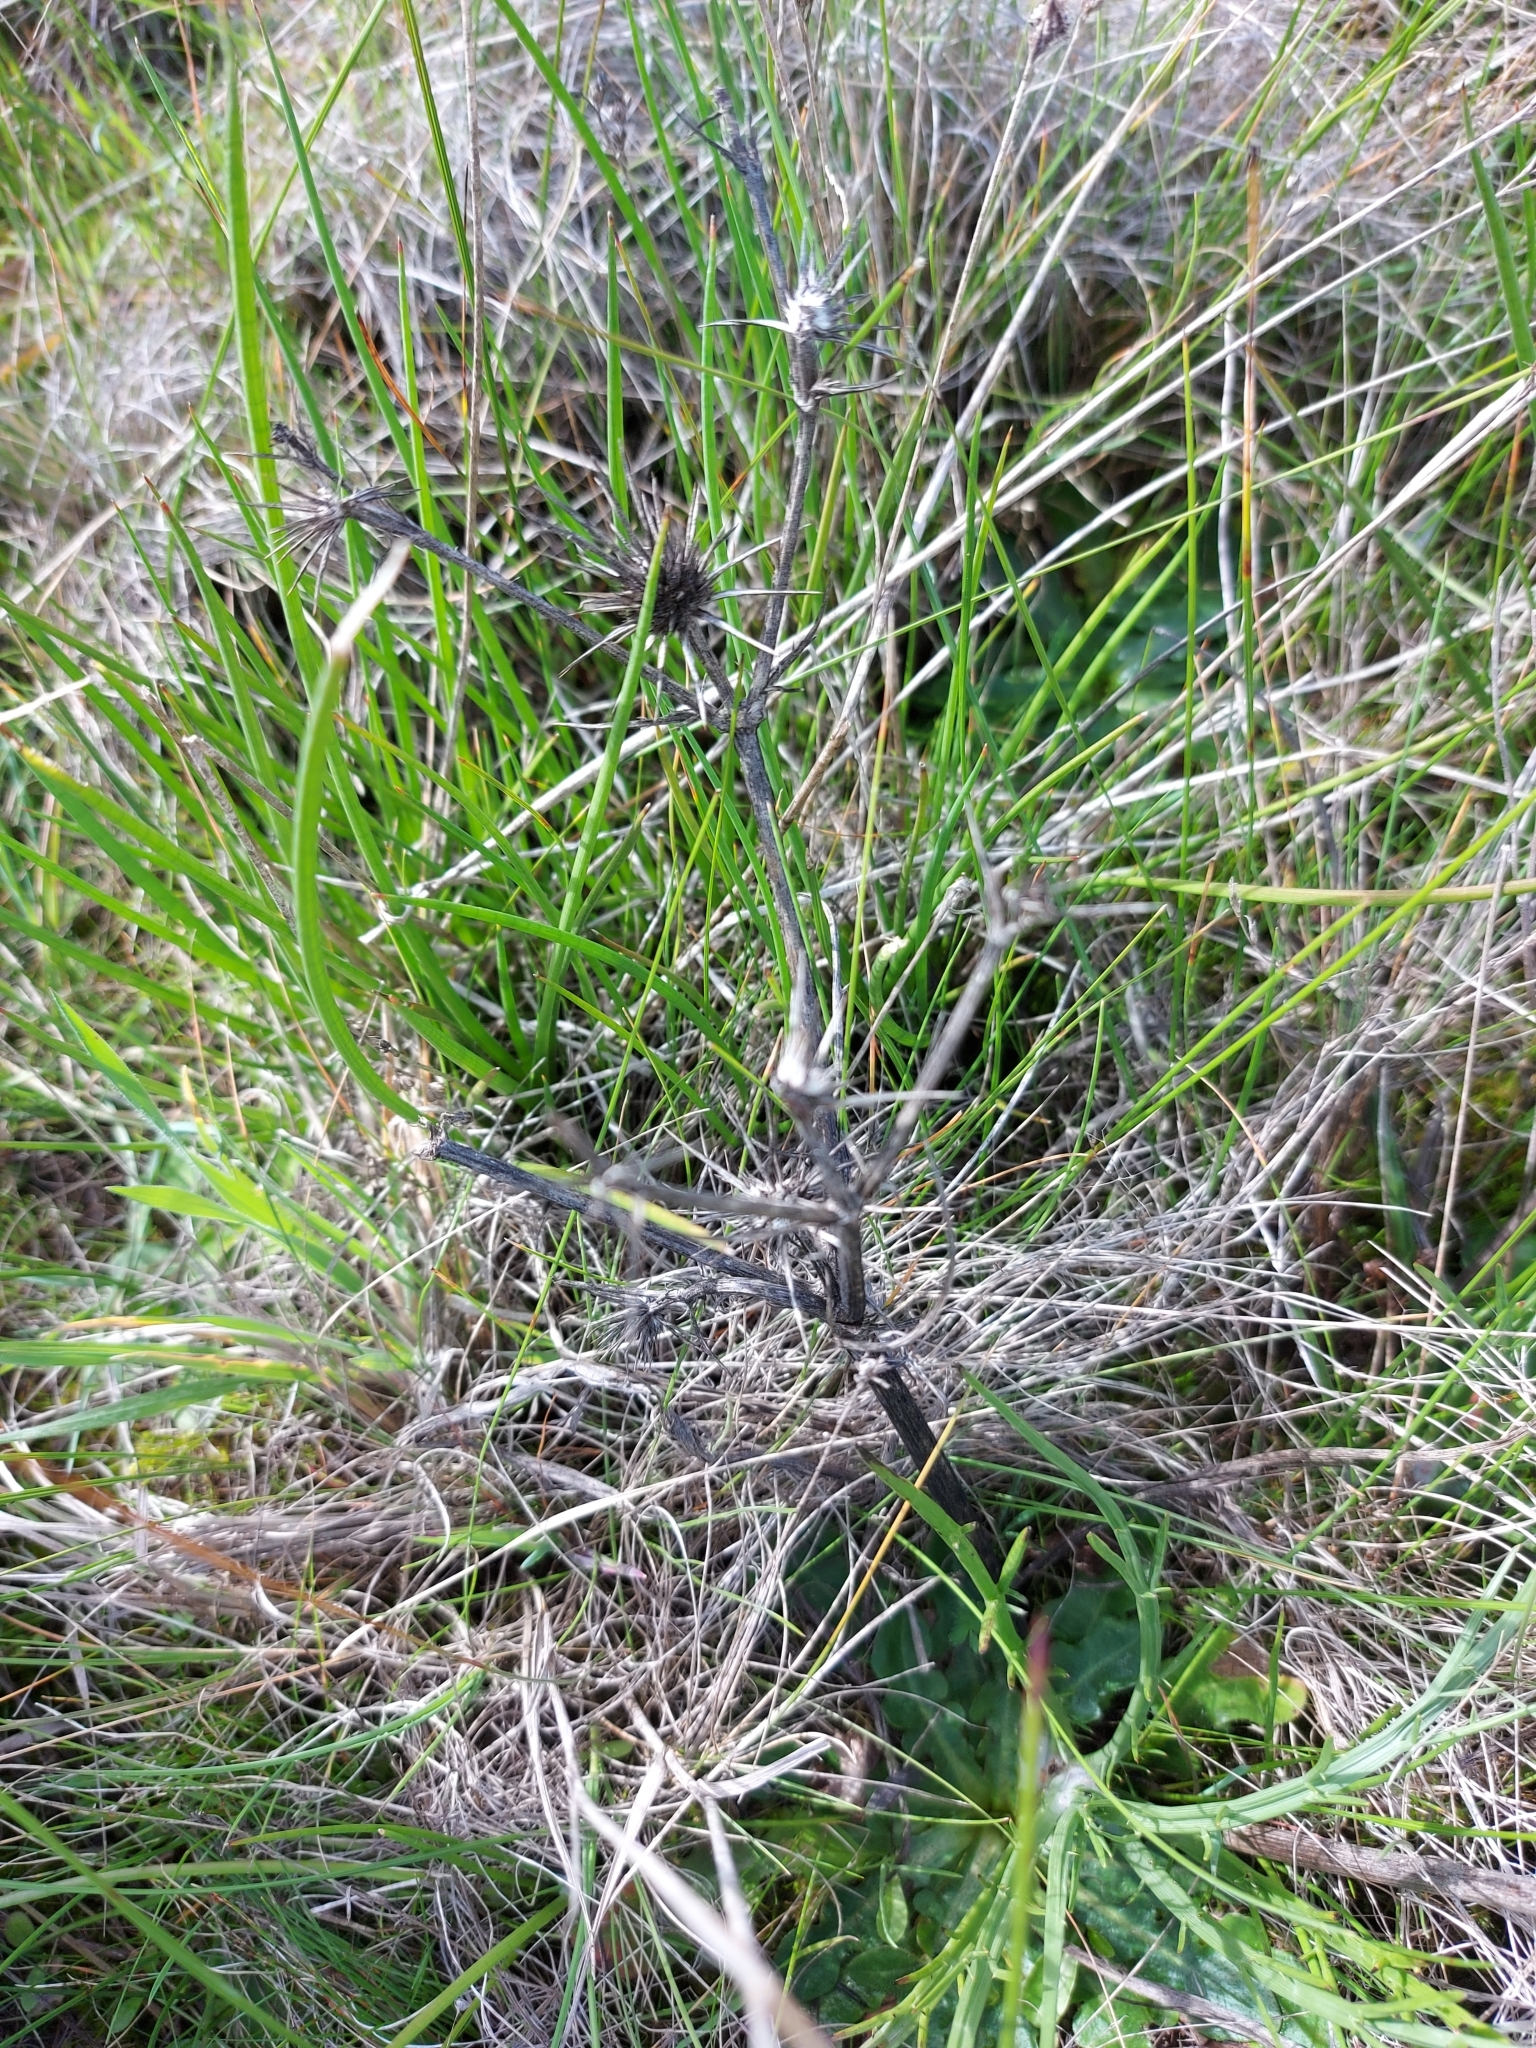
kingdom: Plantae
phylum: Tracheophyta
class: Magnoliopsida
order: Apiales
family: Apiaceae
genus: Eryngium
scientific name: Eryngium ovinum
